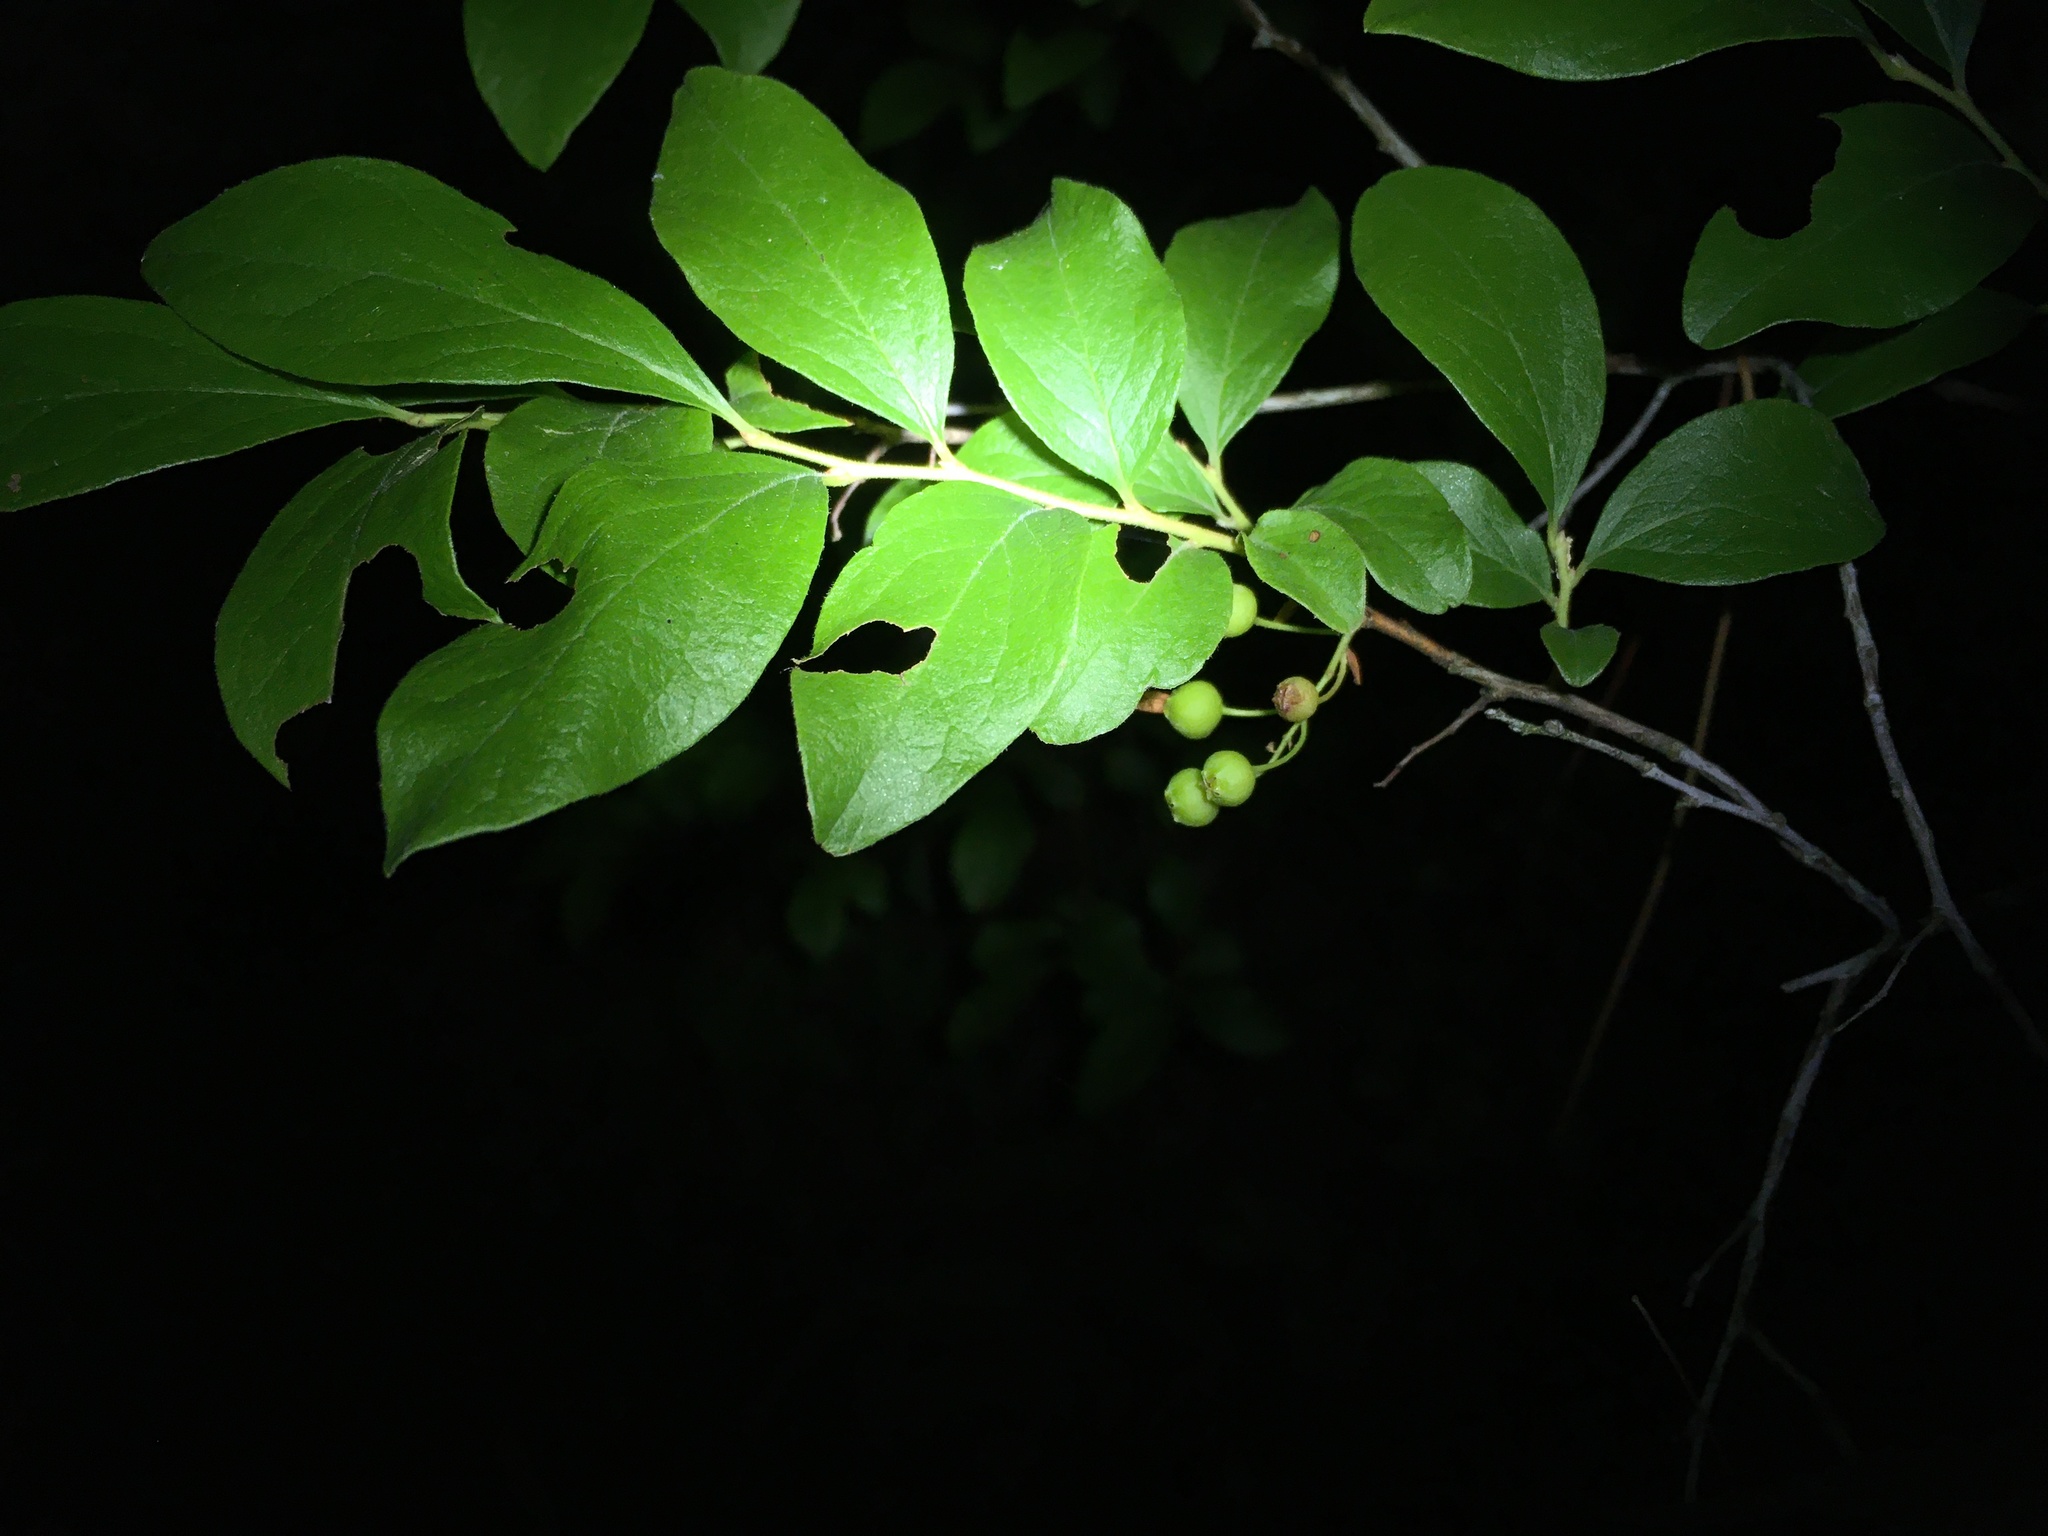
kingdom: Plantae
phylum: Tracheophyta
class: Magnoliopsida
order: Ericales
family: Ericaceae
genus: Gaylussacia
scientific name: Gaylussacia baccata
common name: Black huckleberry
